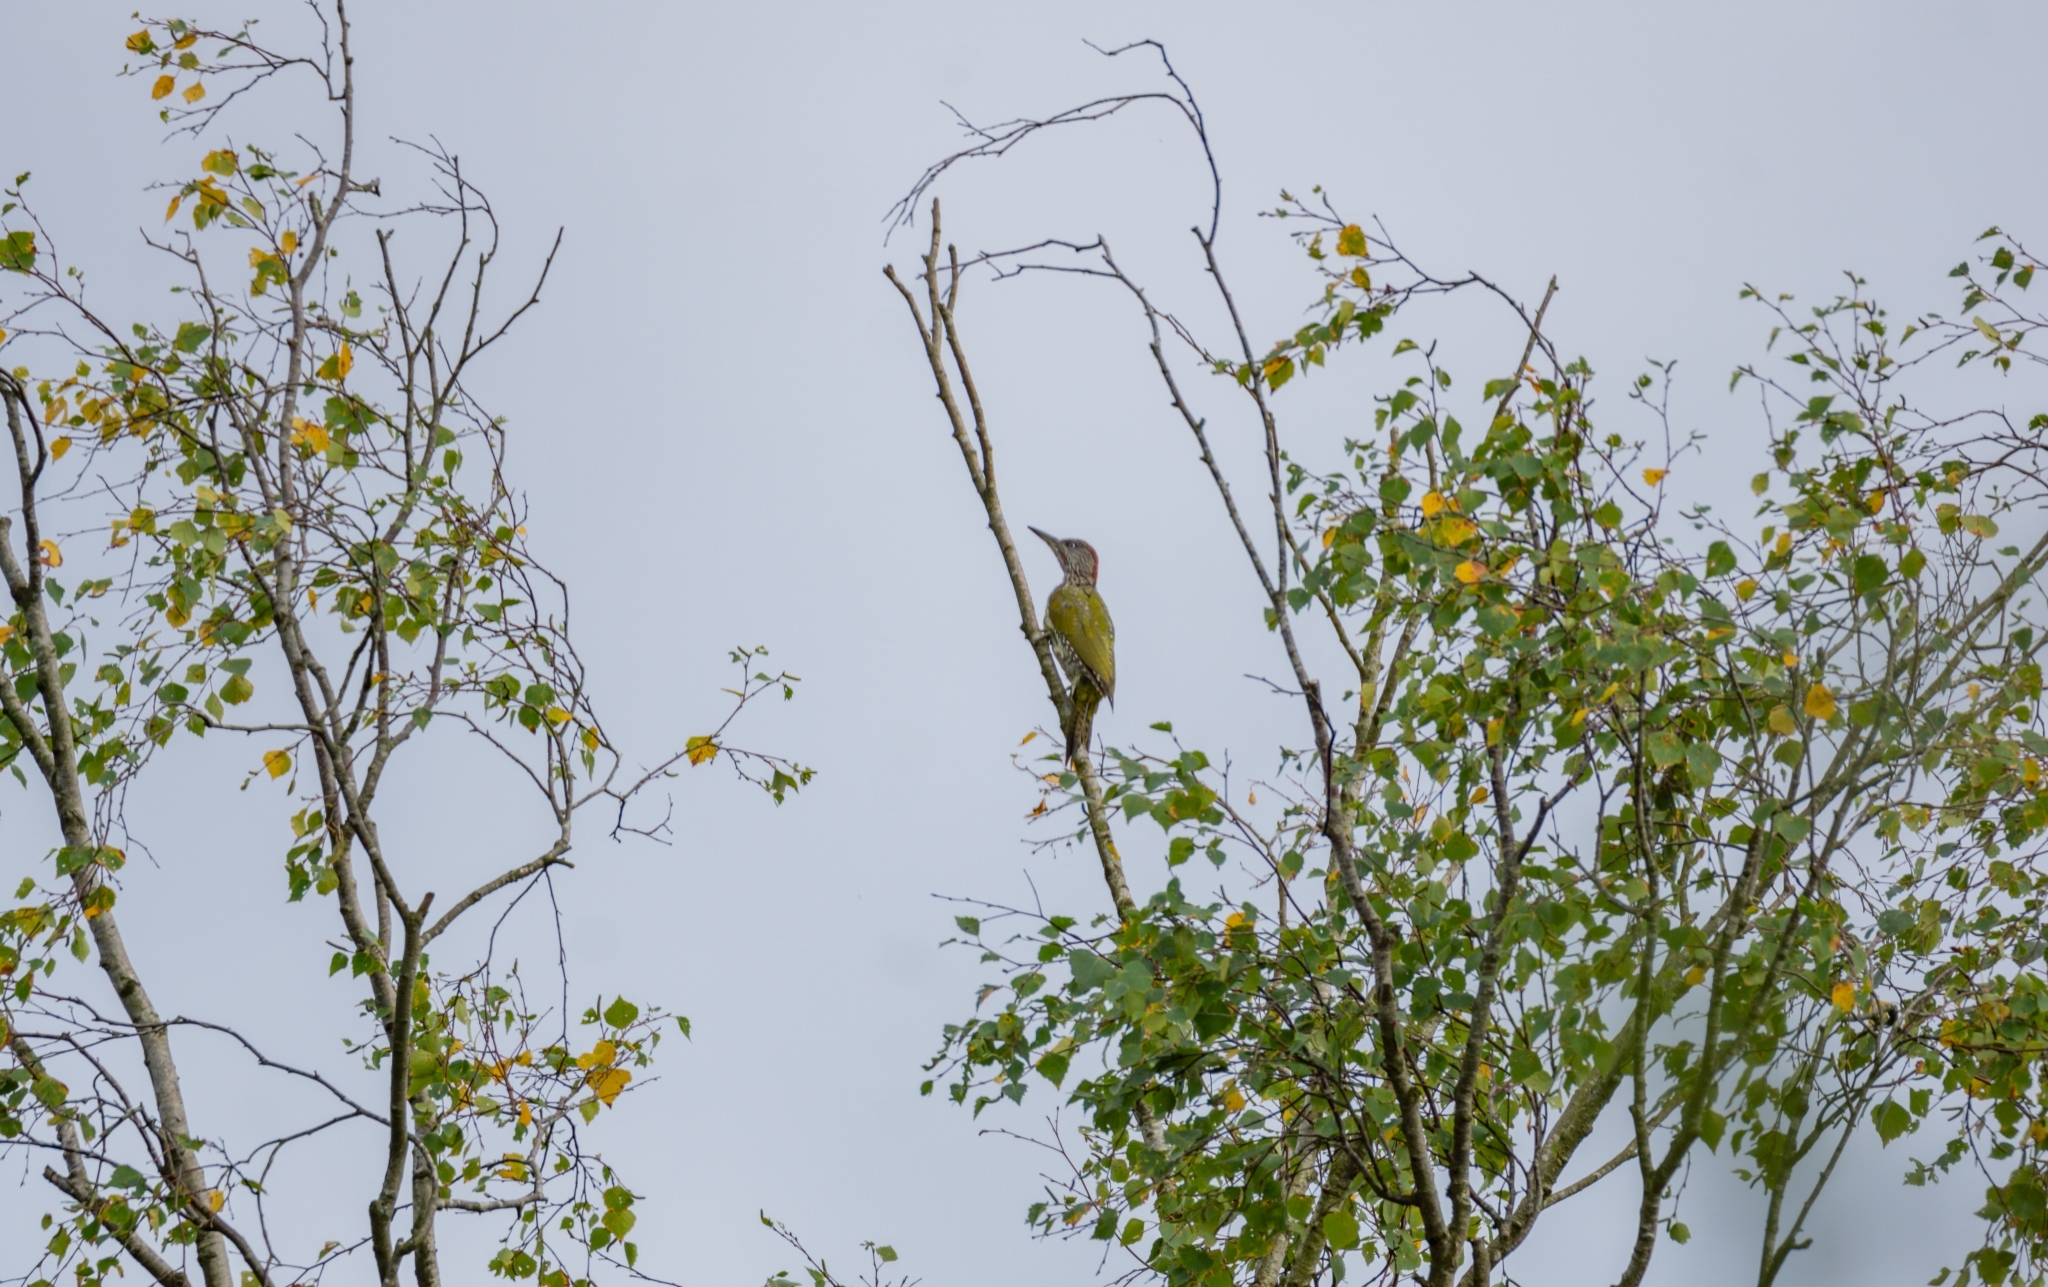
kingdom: Animalia
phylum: Chordata
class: Aves
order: Piciformes
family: Picidae
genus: Picus
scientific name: Picus viridis
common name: European green woodpecker
